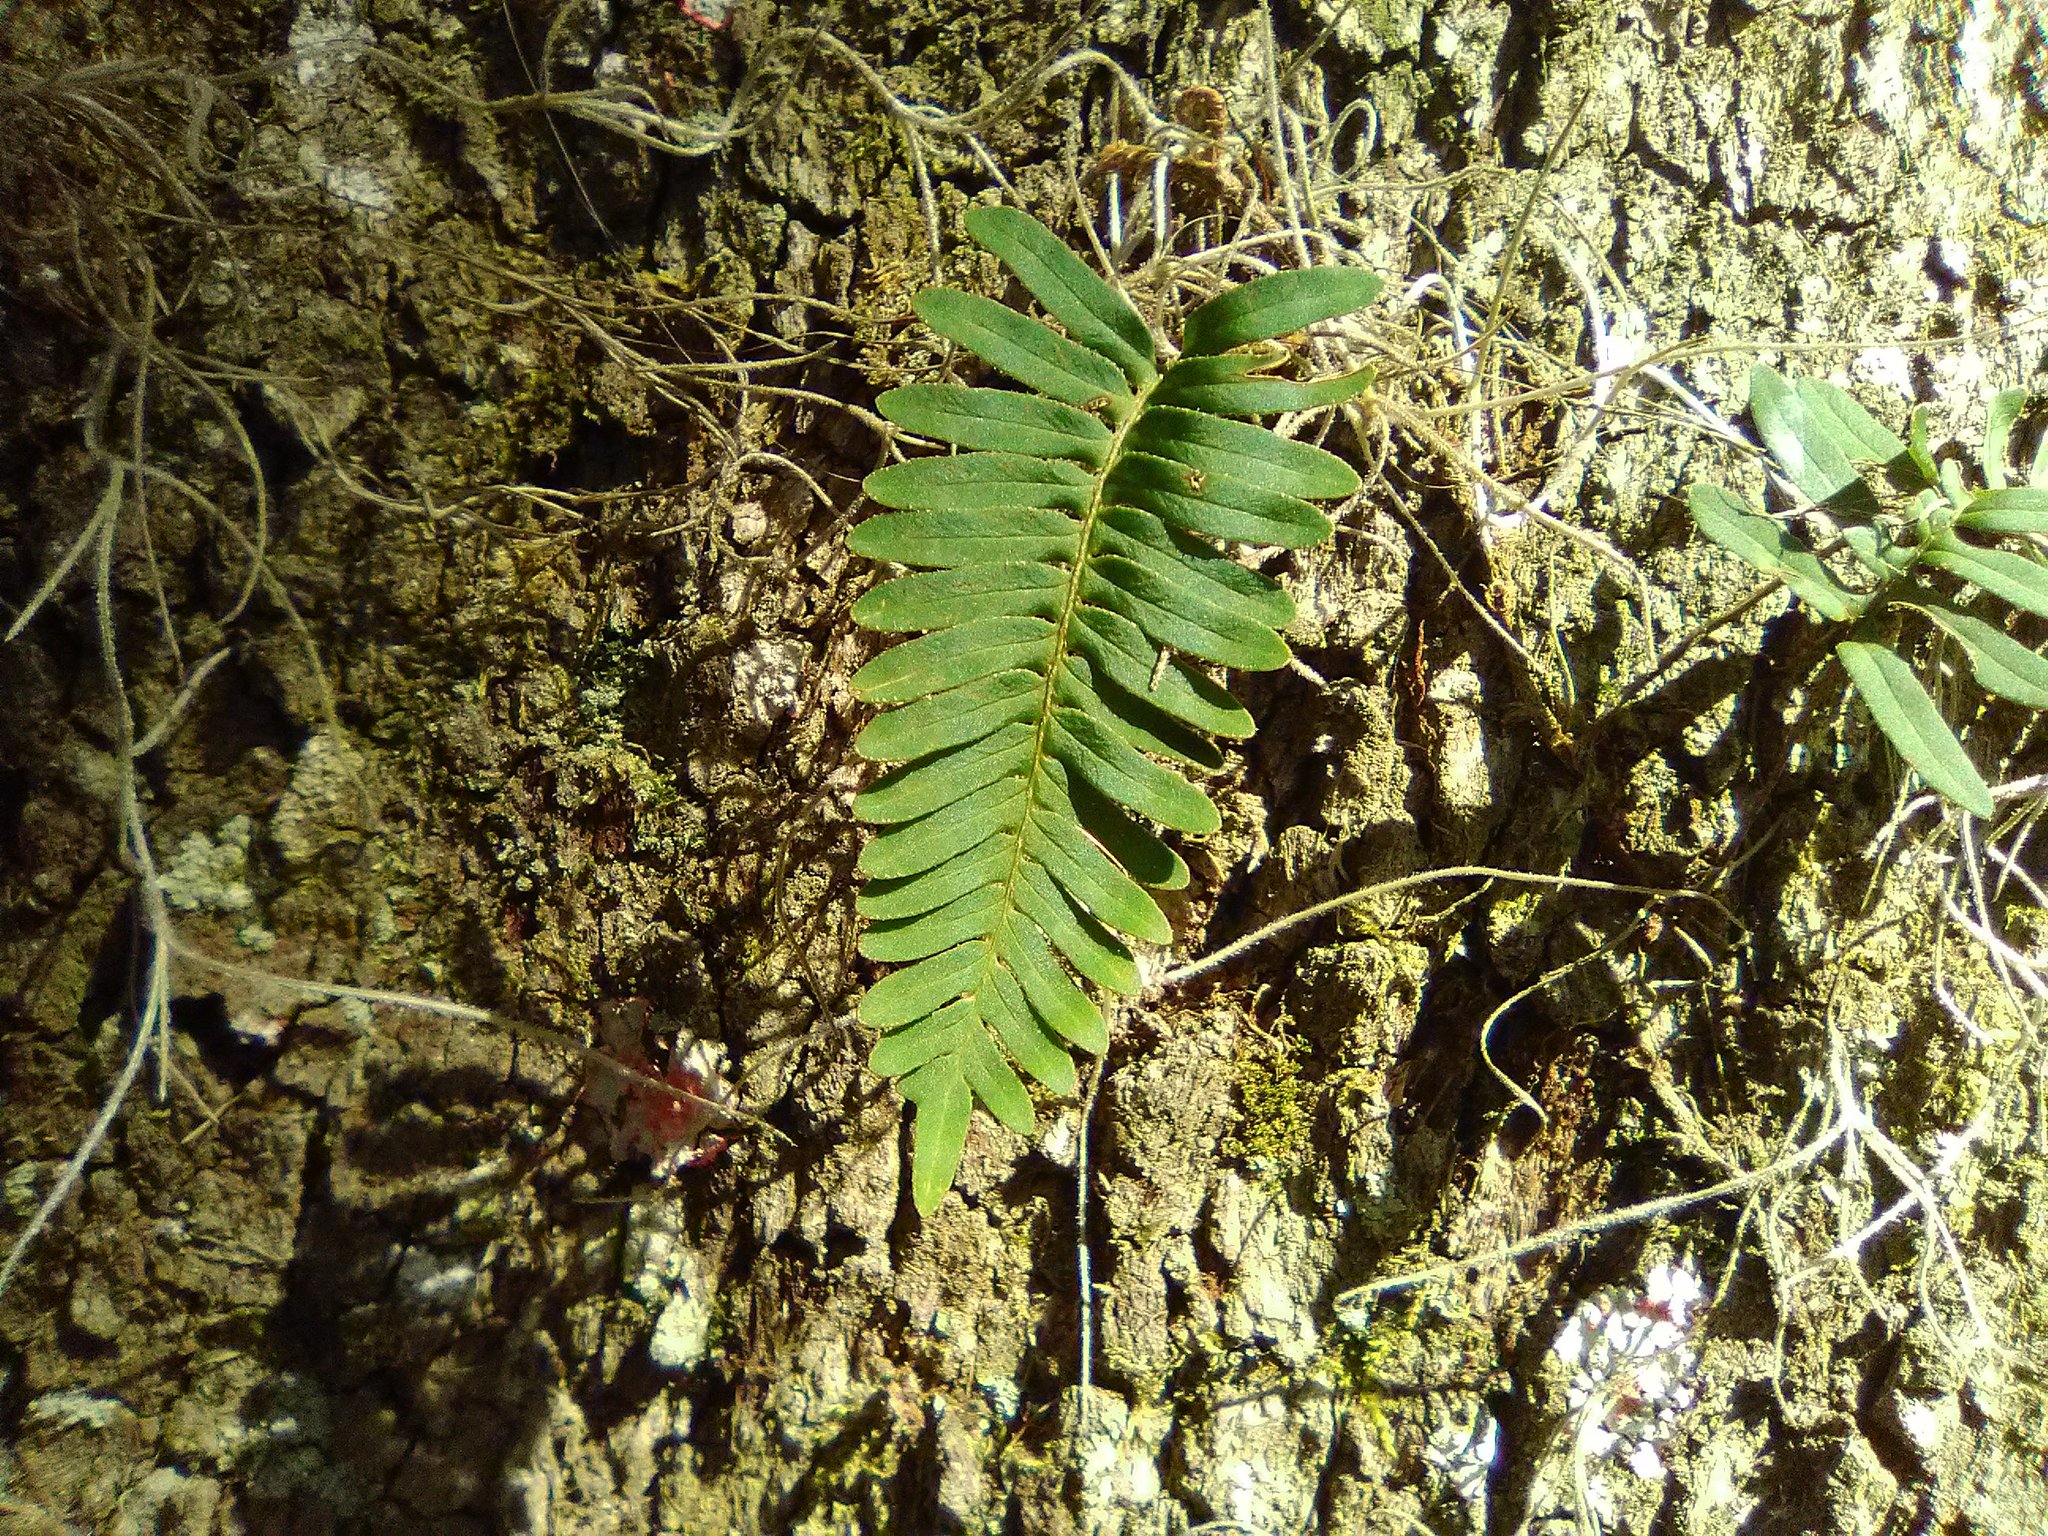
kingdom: Plantae
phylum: Tracheophyta
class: Polypodiopsida
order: Polypodiales
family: Polypodiaceae
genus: Pleopeltis
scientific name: Pleopeltis michauxiana
